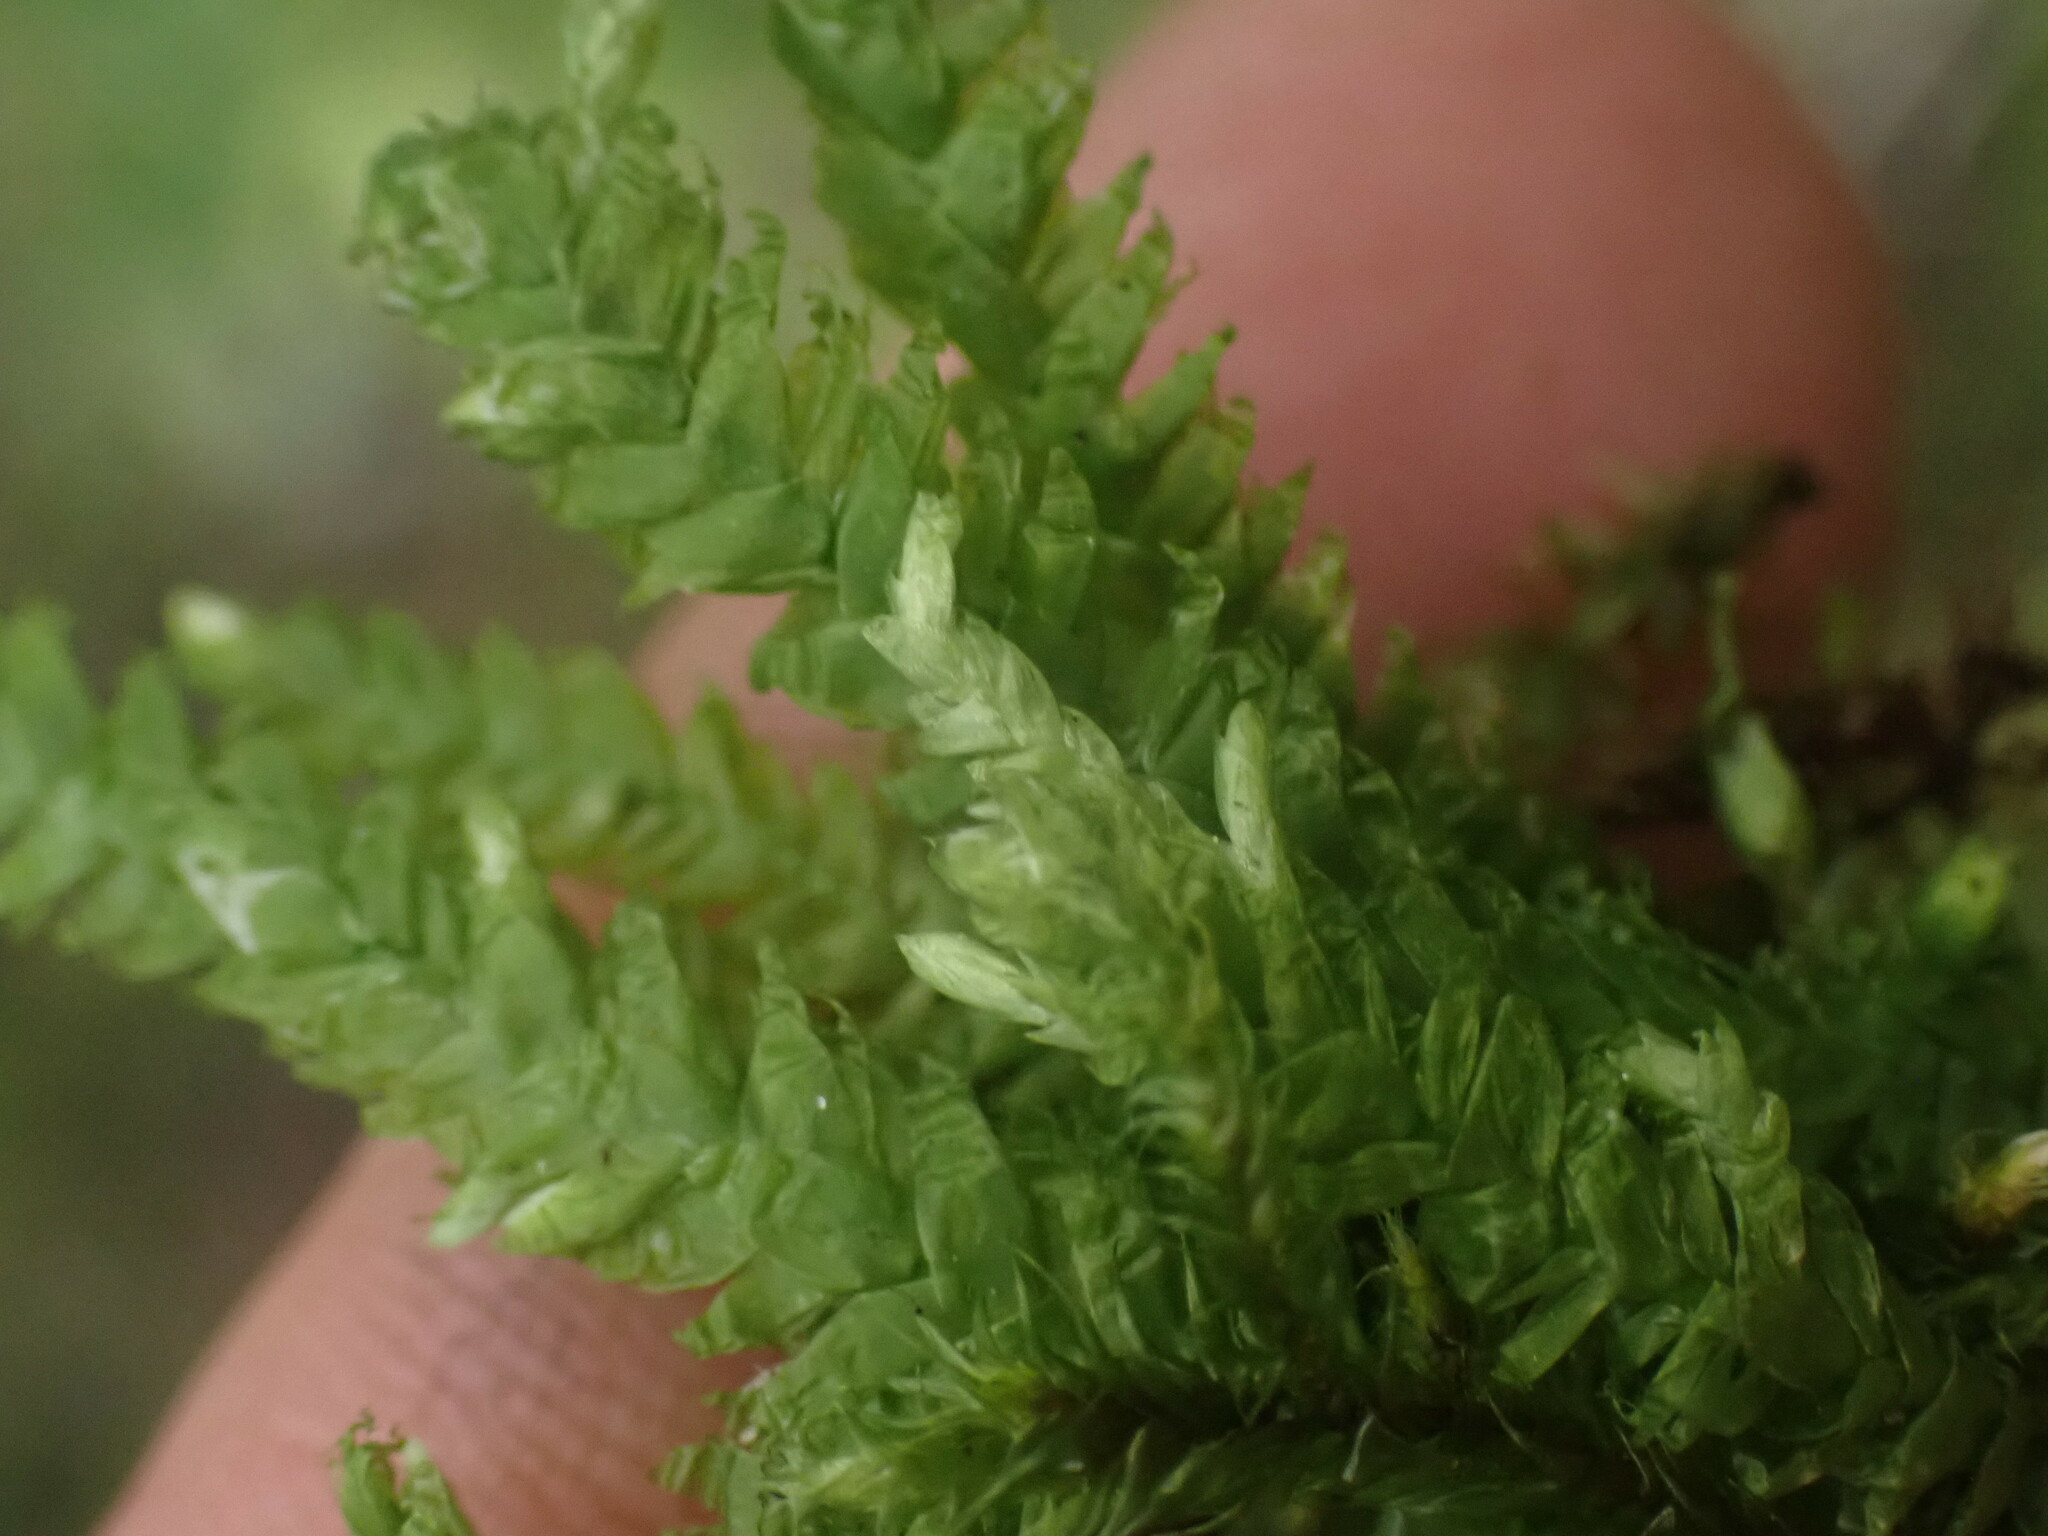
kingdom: Plantae
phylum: Bryophyta
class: Bryopsida
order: Hypnales
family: Plagiotheciaceae
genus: Plagiothecium
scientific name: Plagiothecium undulatum
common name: Waved silk-moss
